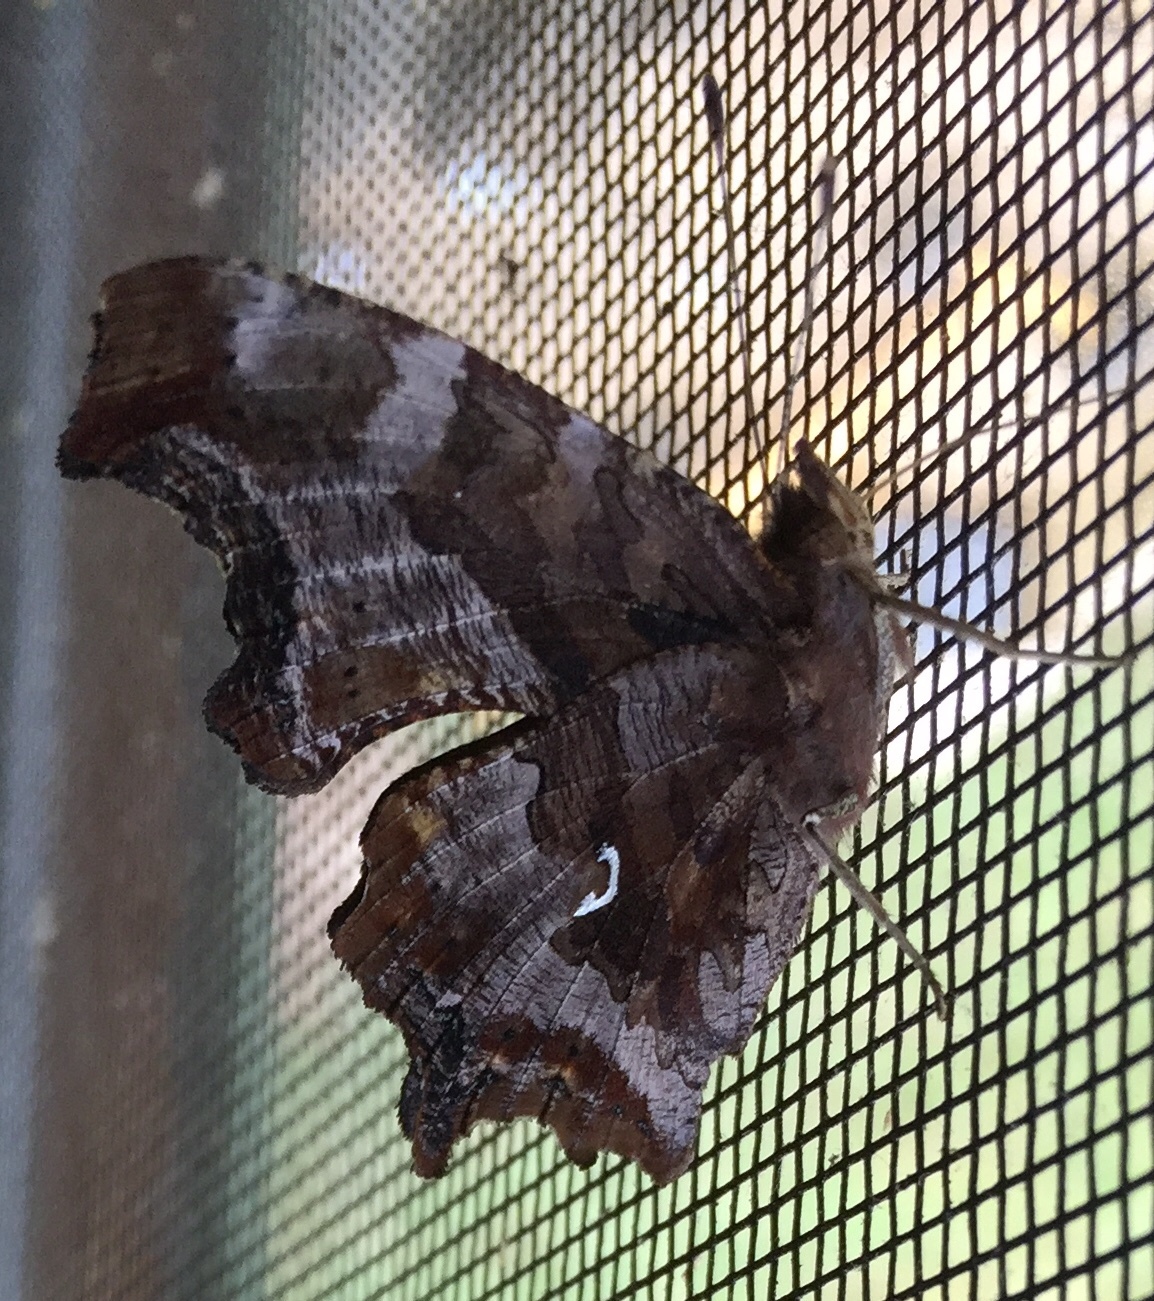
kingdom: Animalia
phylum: Arthropoda
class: Insecta
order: Lepidoptera
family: Nymphalidae
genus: Polygonia
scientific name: Polygonia comma
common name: Eastern comma
